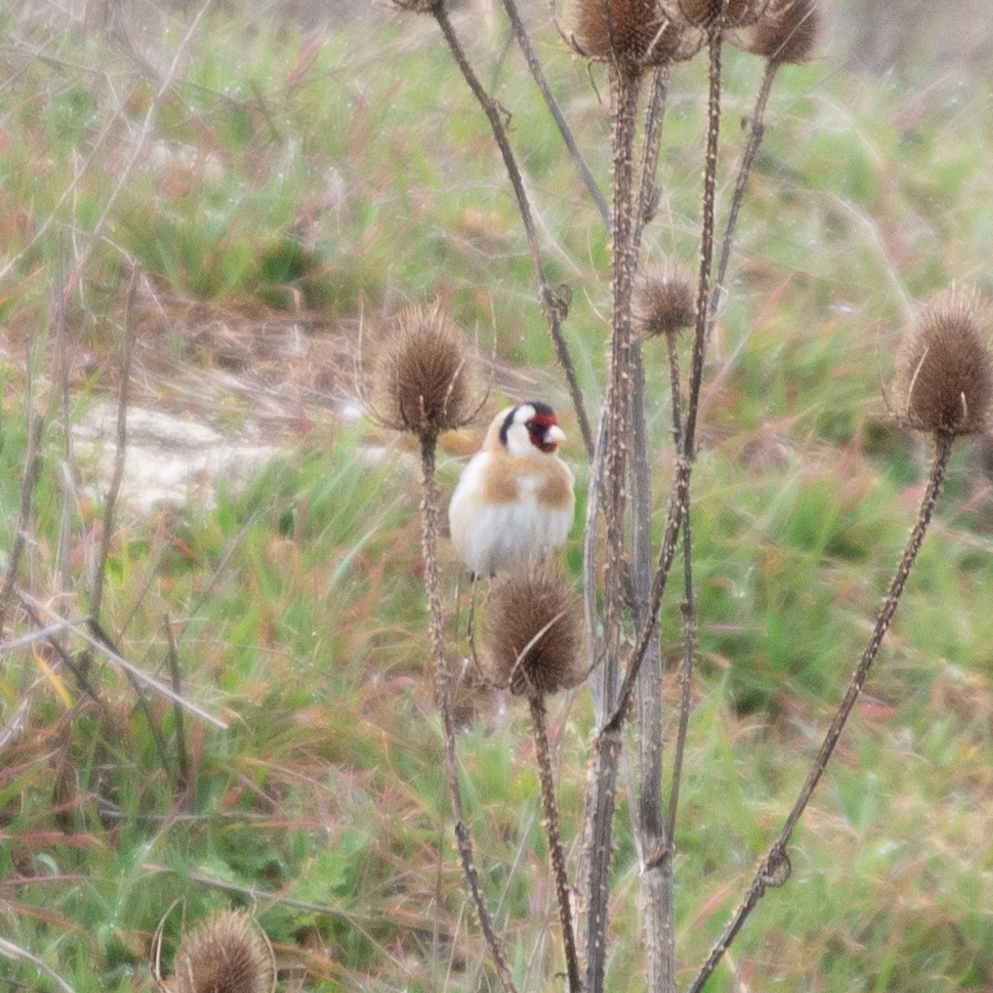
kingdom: Animalia
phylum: Chordata
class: Aves
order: Passeriformes
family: Fringillidae
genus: Carduelis
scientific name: Carduelis carduelis
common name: European goldfinch
